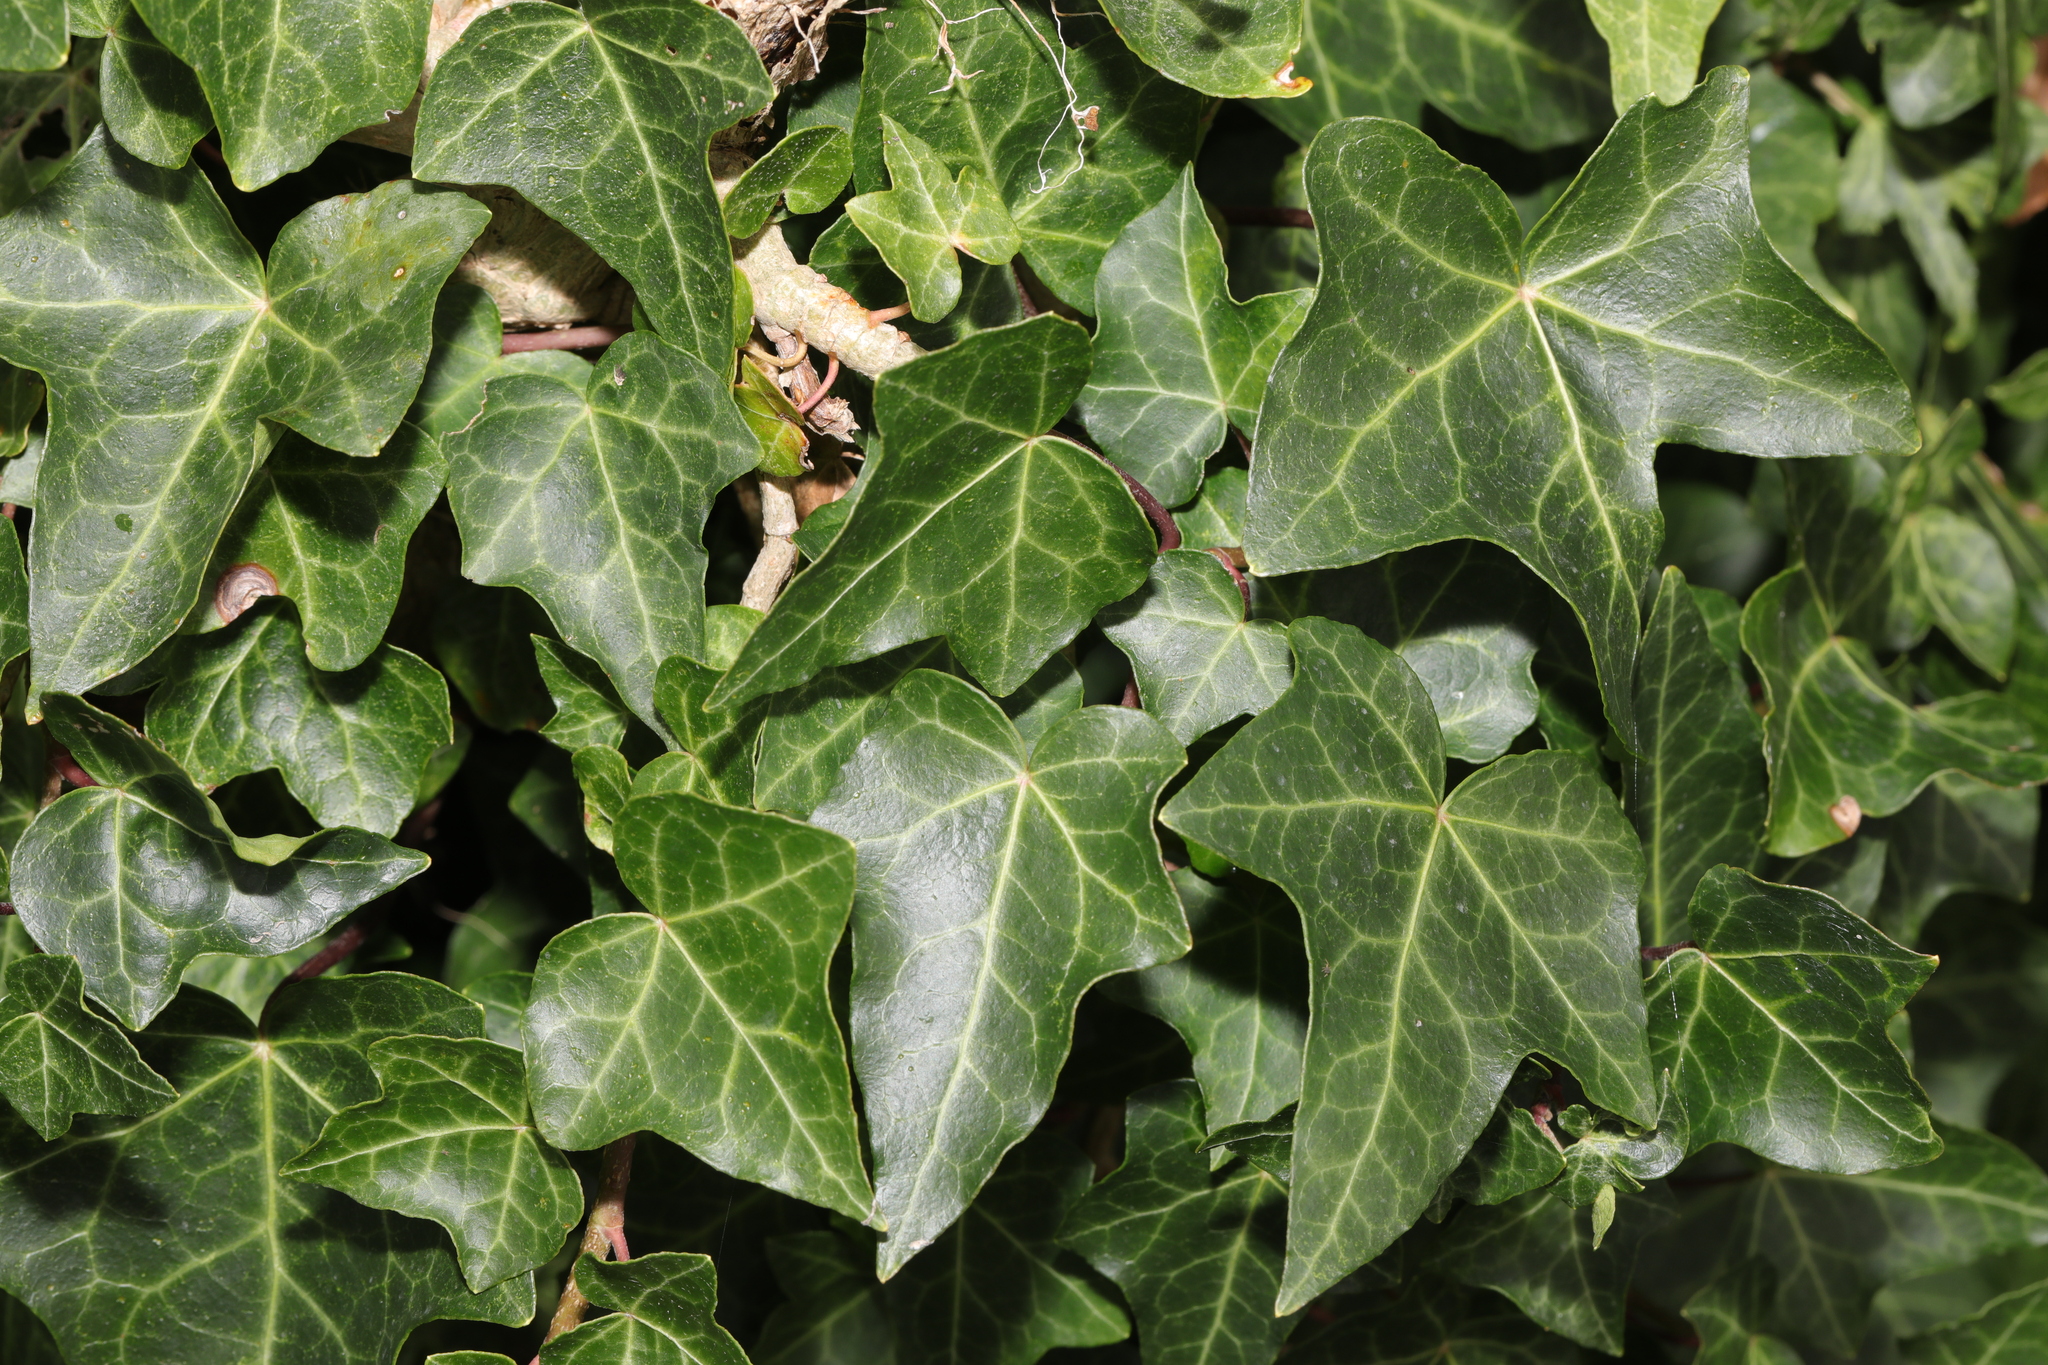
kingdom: Plantae
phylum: Tracheophyta
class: Magnoliopsida
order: Apiales
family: Araliaceae
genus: Hedera
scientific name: Hedera helix
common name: Ivy
